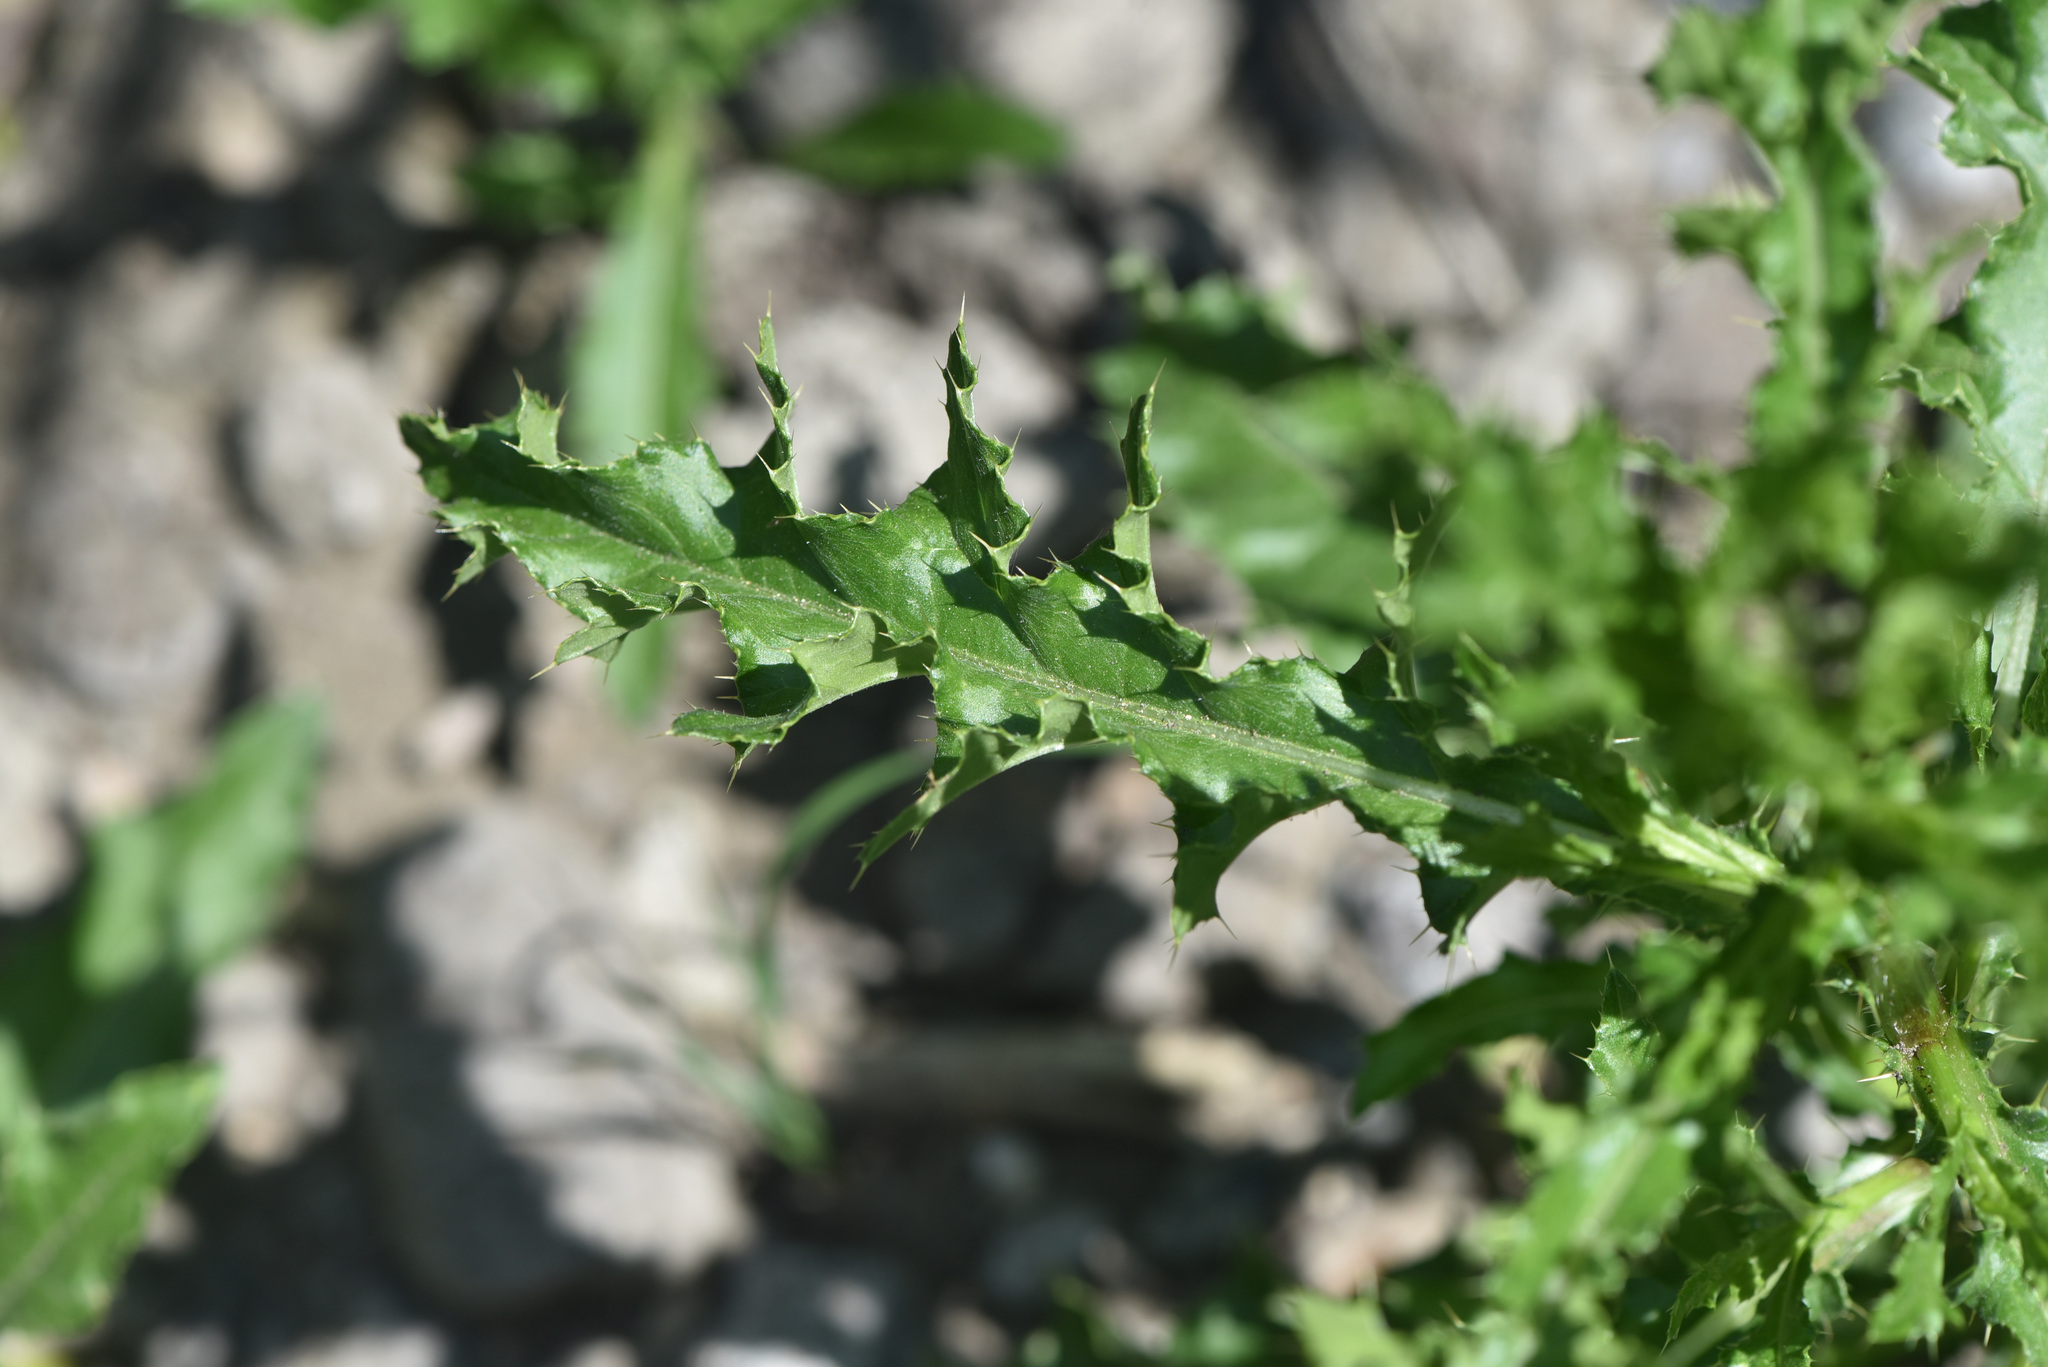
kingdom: Plantae
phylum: Tracheophyta
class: Magnoliopsida
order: Asterales
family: Asteraceae
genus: Cirsium
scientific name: Cirsium arvense
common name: Creeping thistle
